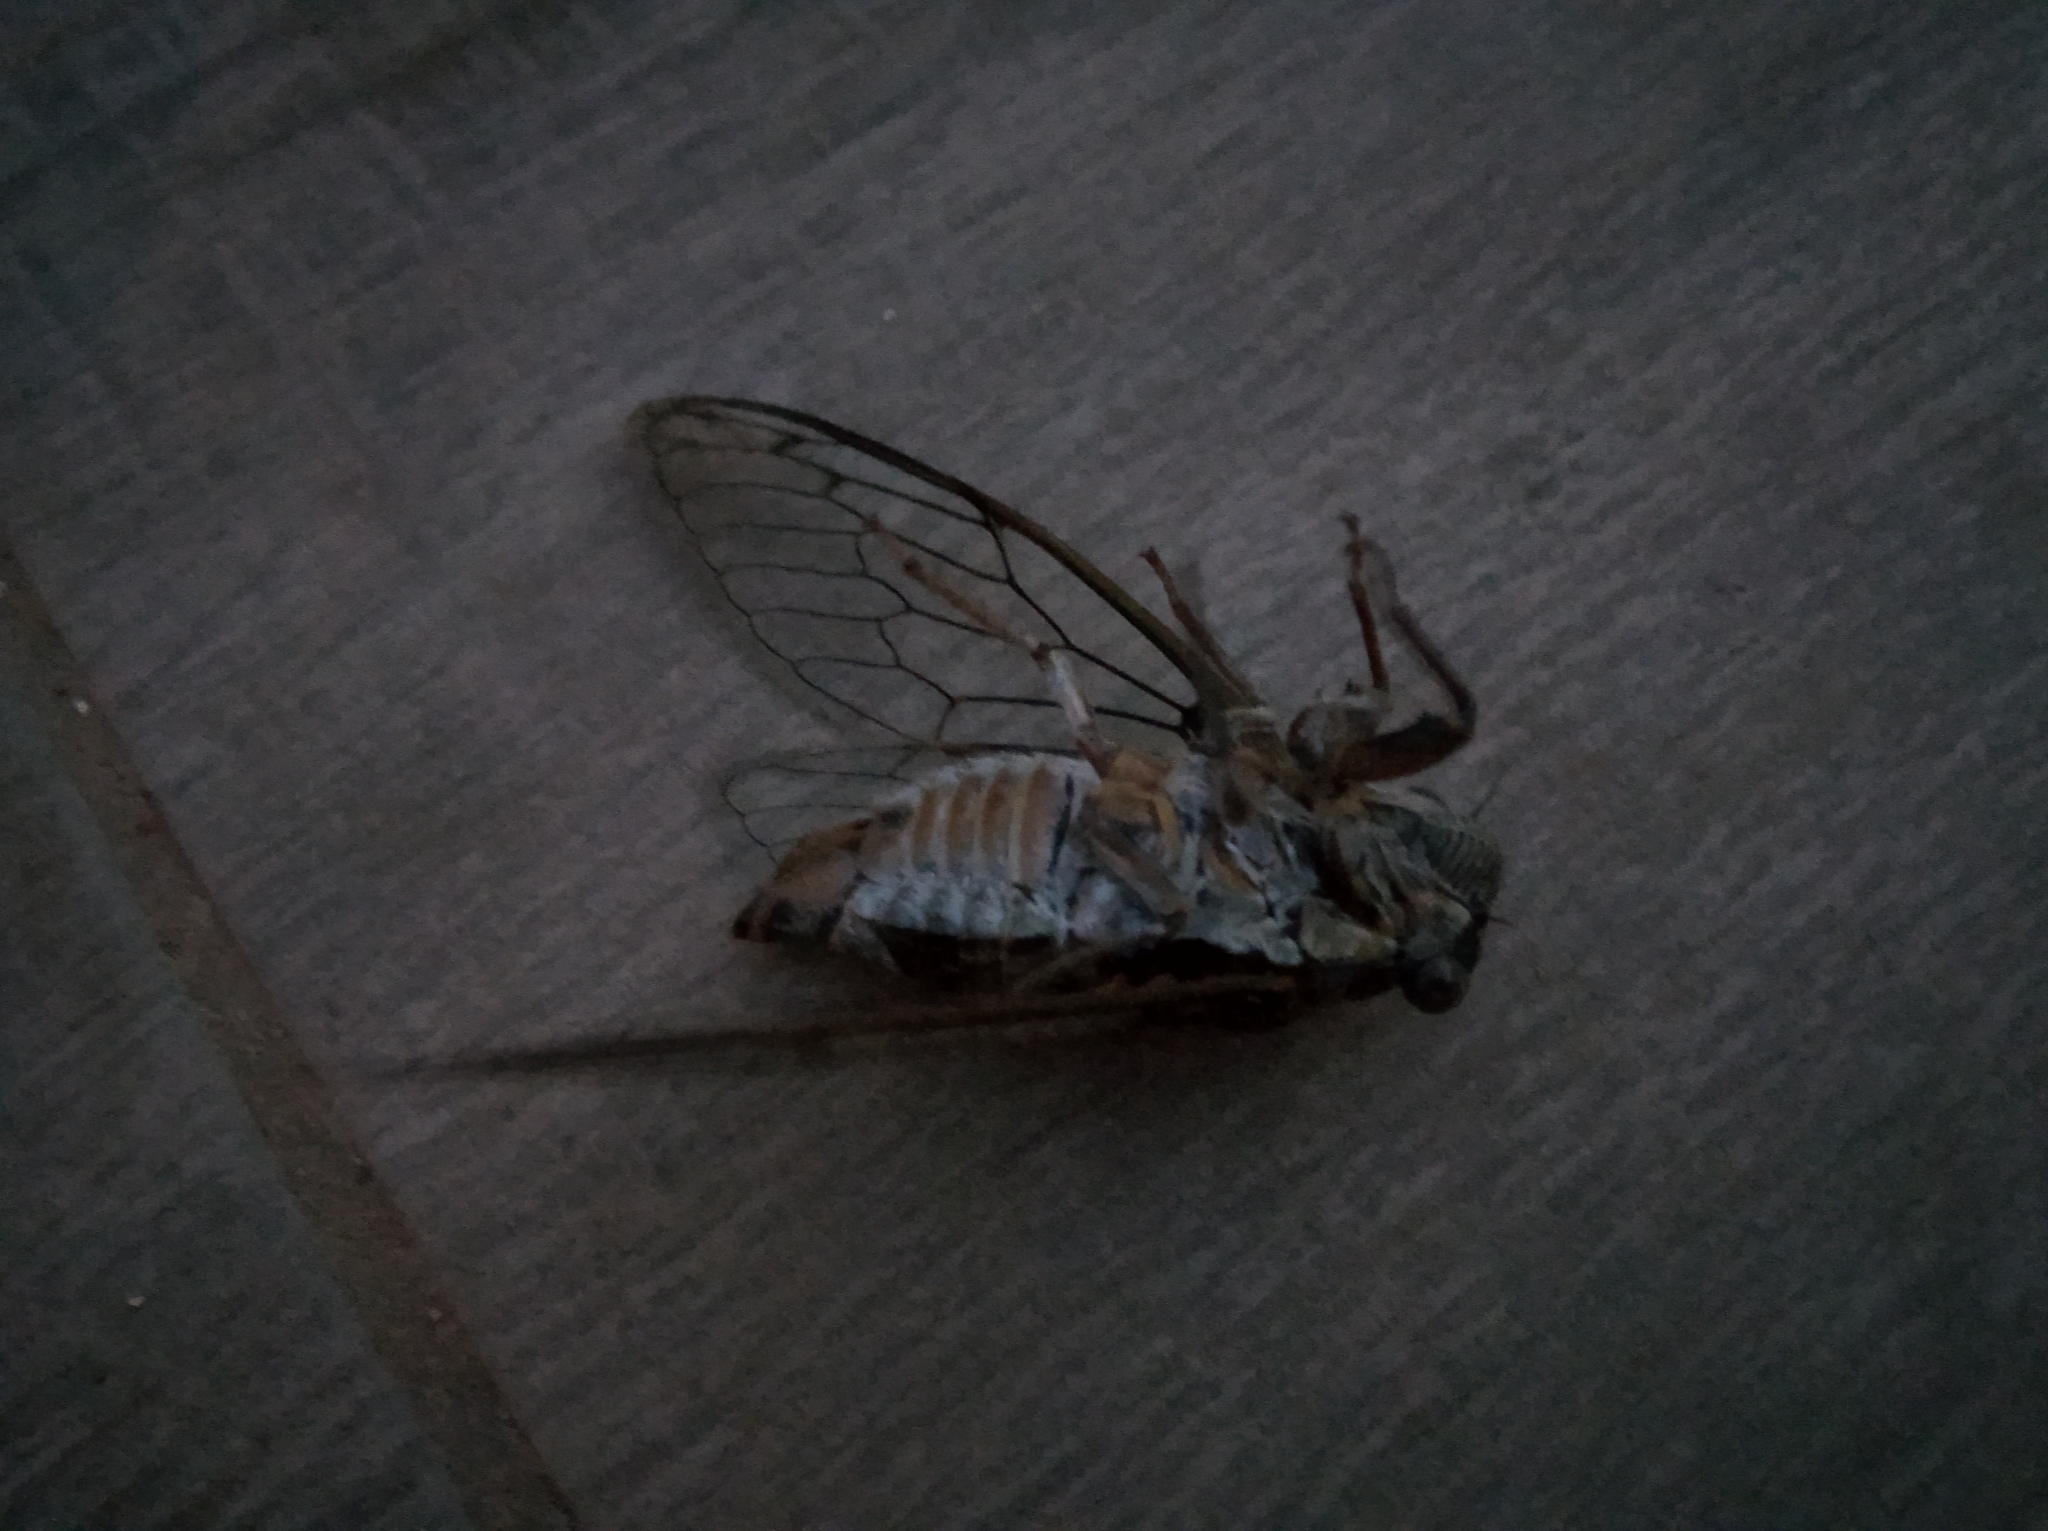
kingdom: Animalia
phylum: Arthropoda
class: Insecta
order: Hemiptera
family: Cicadidae
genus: Lyristes
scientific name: Lyristes plebejus
